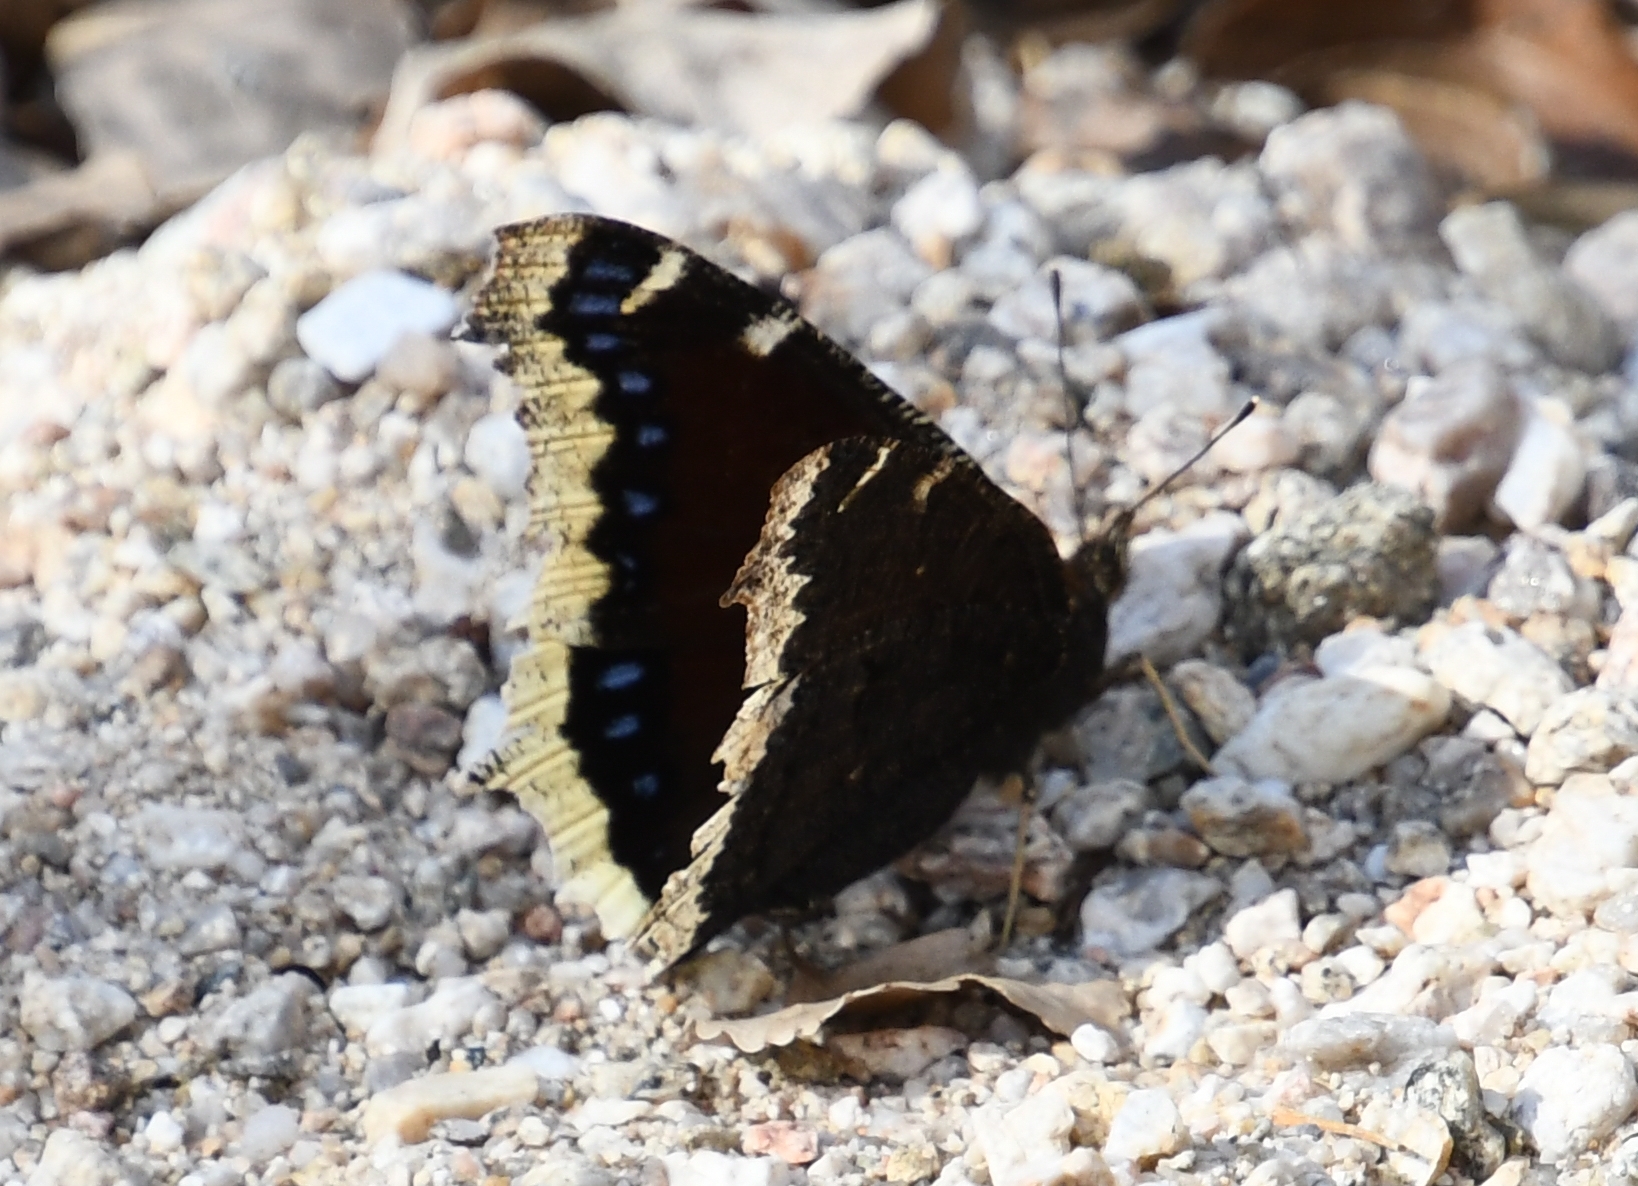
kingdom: Animalia
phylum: Arthropoda
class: Insecta
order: Lepidoptera
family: Nymphalidae
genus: Nymphalis
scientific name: Nymphalis antiopa
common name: Camberwell beauty
